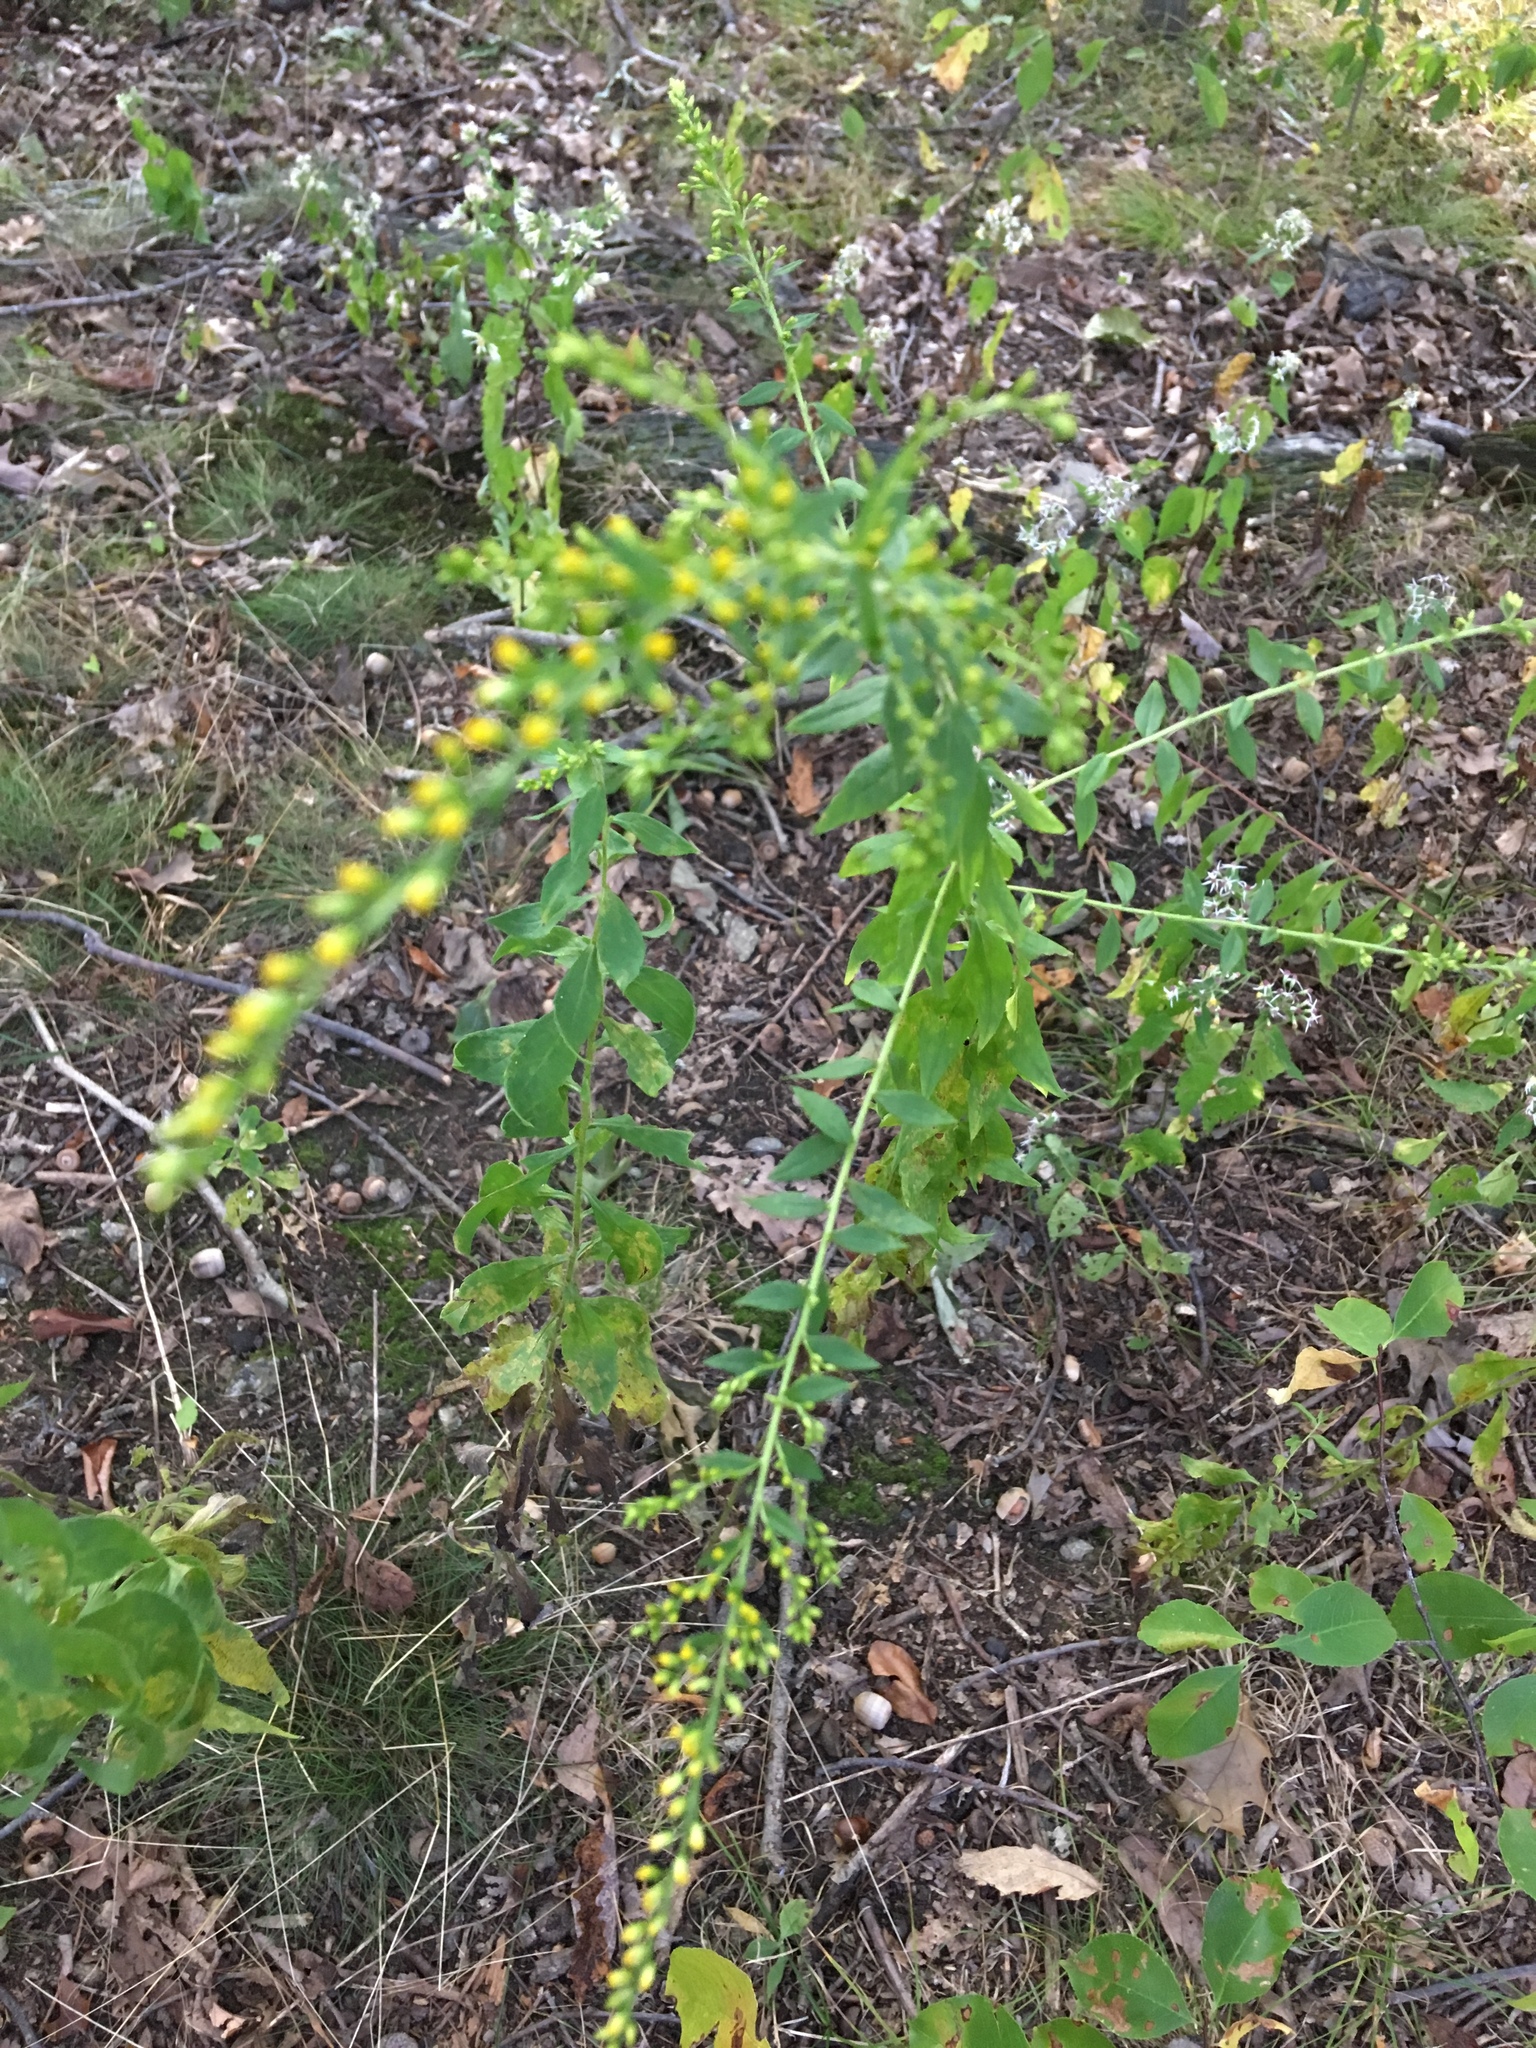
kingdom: Plantae
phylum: Tracheophyta
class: Magnoliopsida
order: Asterales
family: Asteraceae
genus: Solidago
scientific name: Solidago rugosa
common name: Rough-stemmed goldenrod
